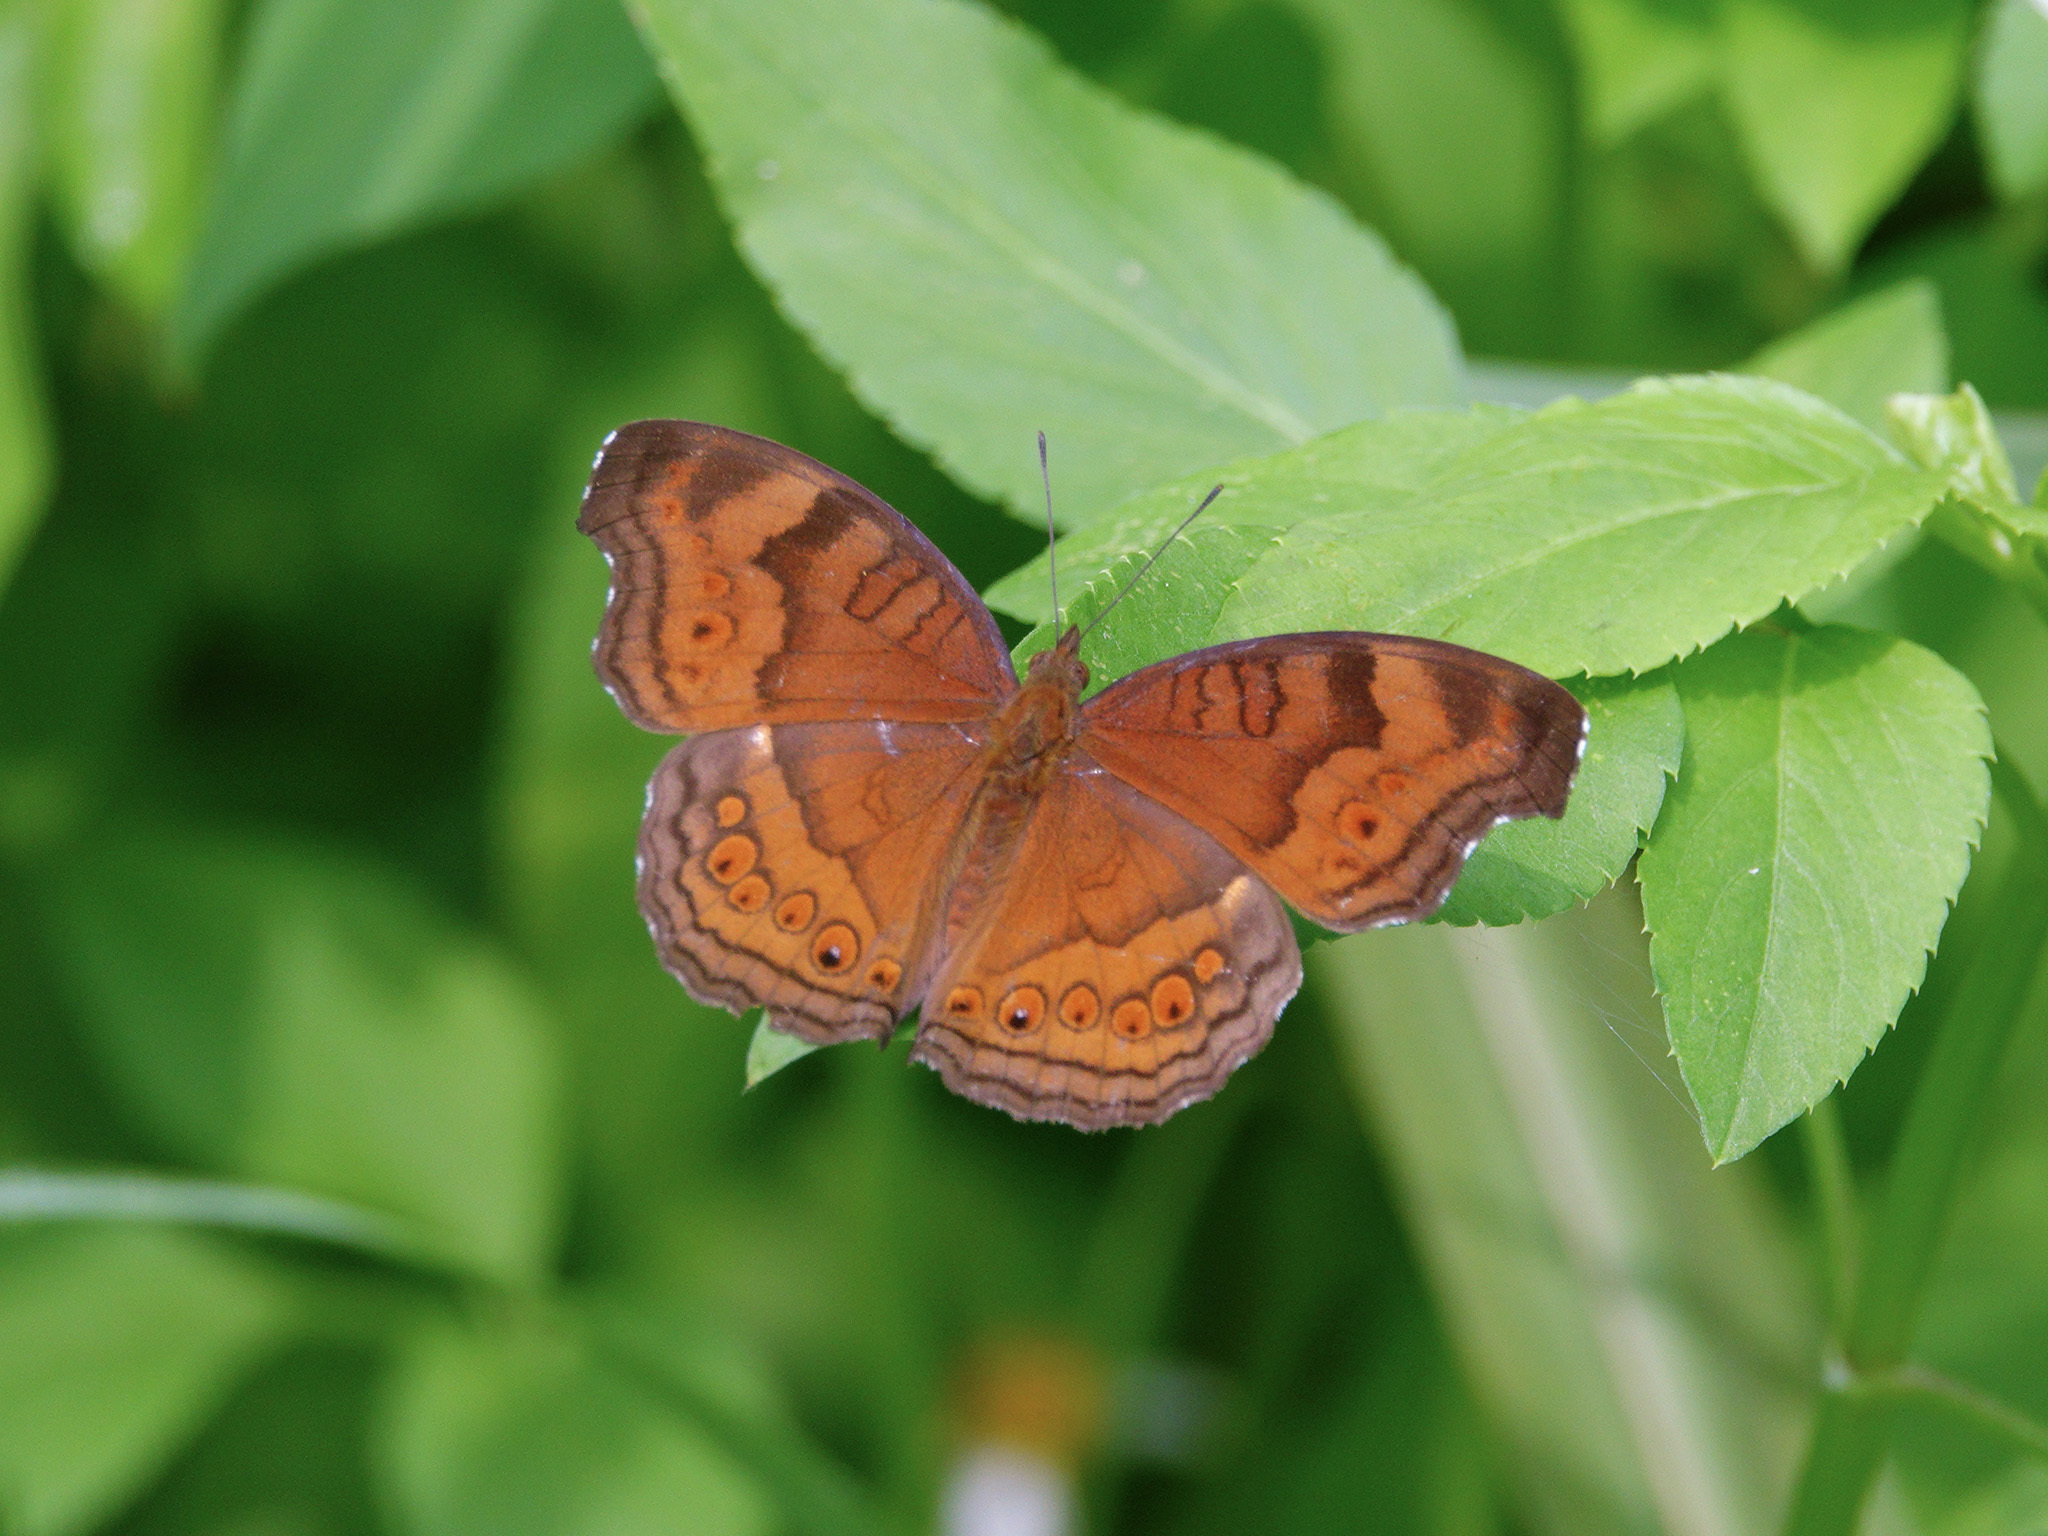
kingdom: Animalia
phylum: Arthropoda
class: Insecta
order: Lepidoptera
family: Nymphalidae
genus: Junonia
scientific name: Junonia hedonia
